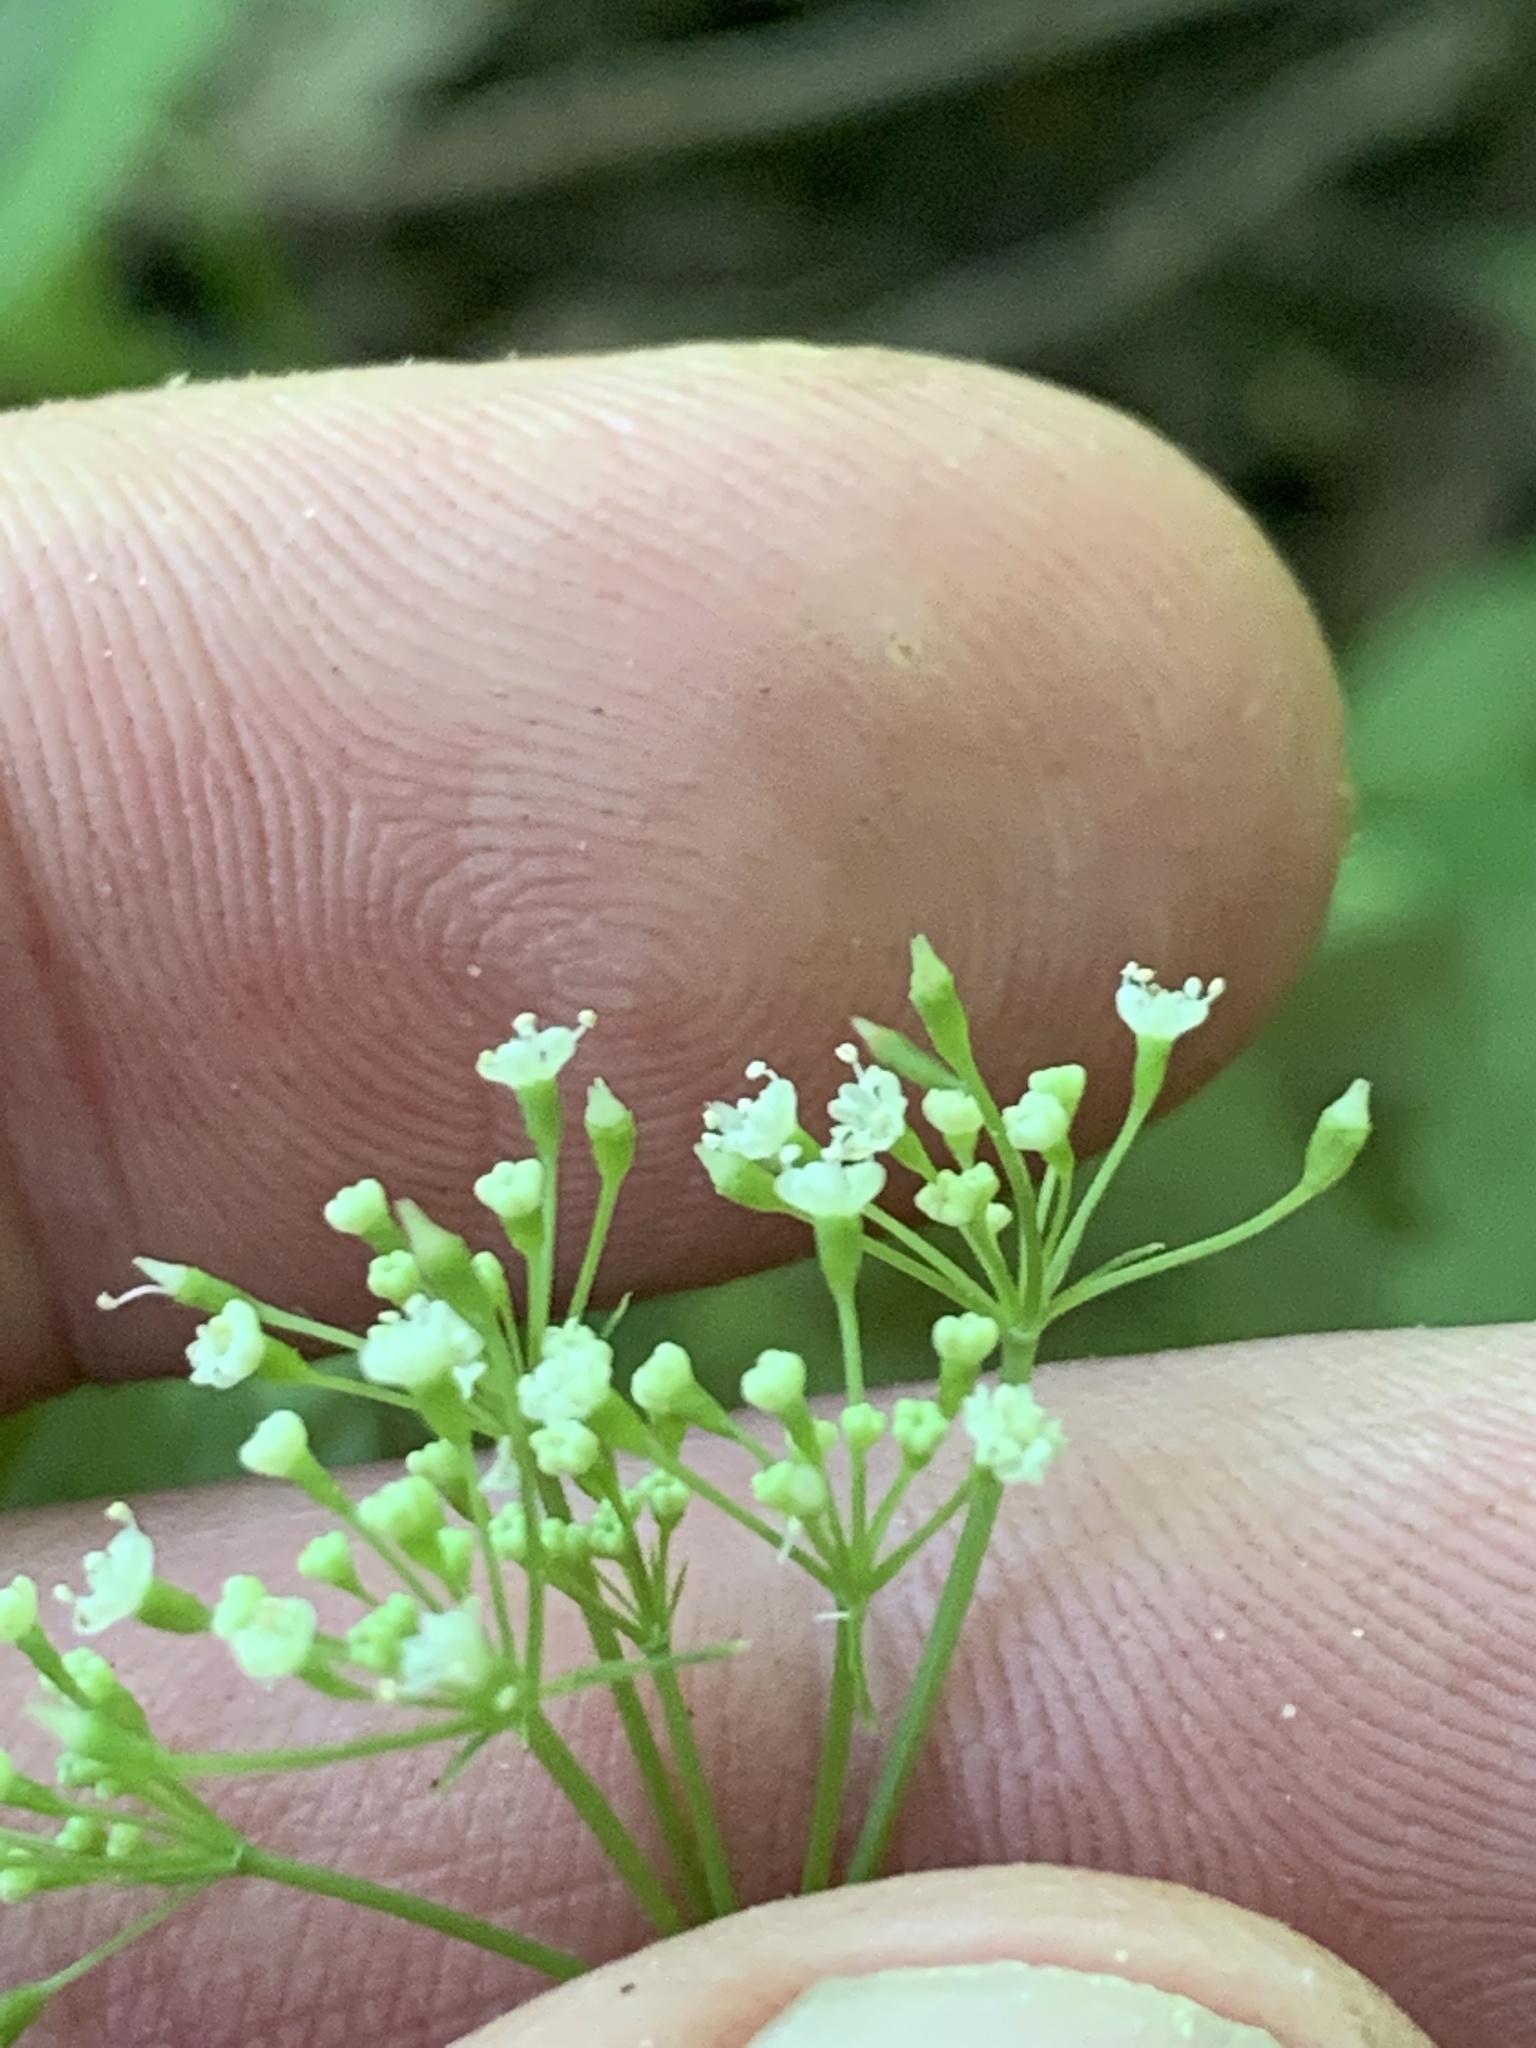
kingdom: Plantae
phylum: Tracheophyta
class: Magnoliopsida
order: Apiales
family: Apiaceae
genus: Cryptotaenia
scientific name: Cryptotaenia canadensis
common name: Honewort
